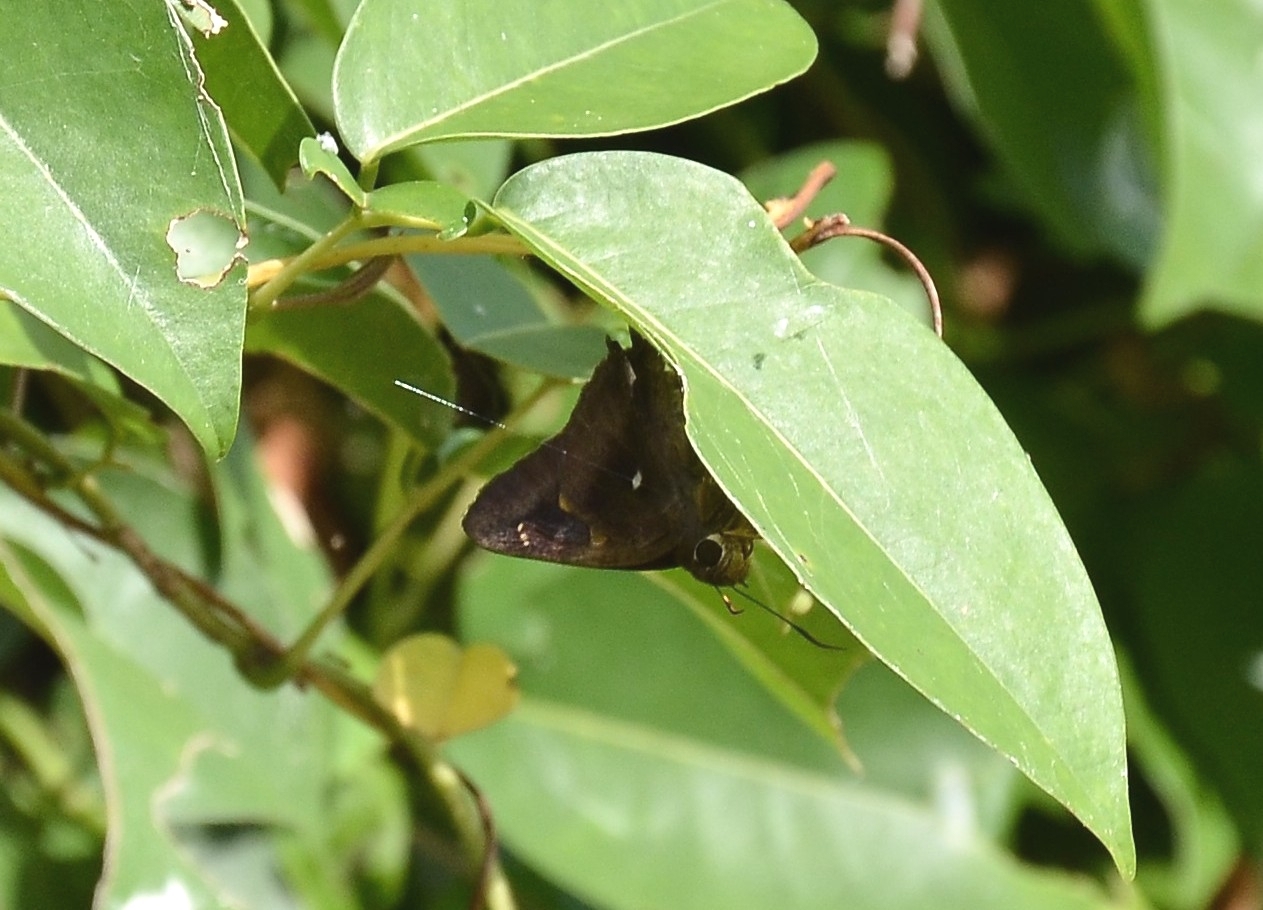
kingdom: Animalia
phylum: Arthropoda
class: Insecta
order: Lepidoptera
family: Hesperiidae
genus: Hasora
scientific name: Hasora badra
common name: Common awl
